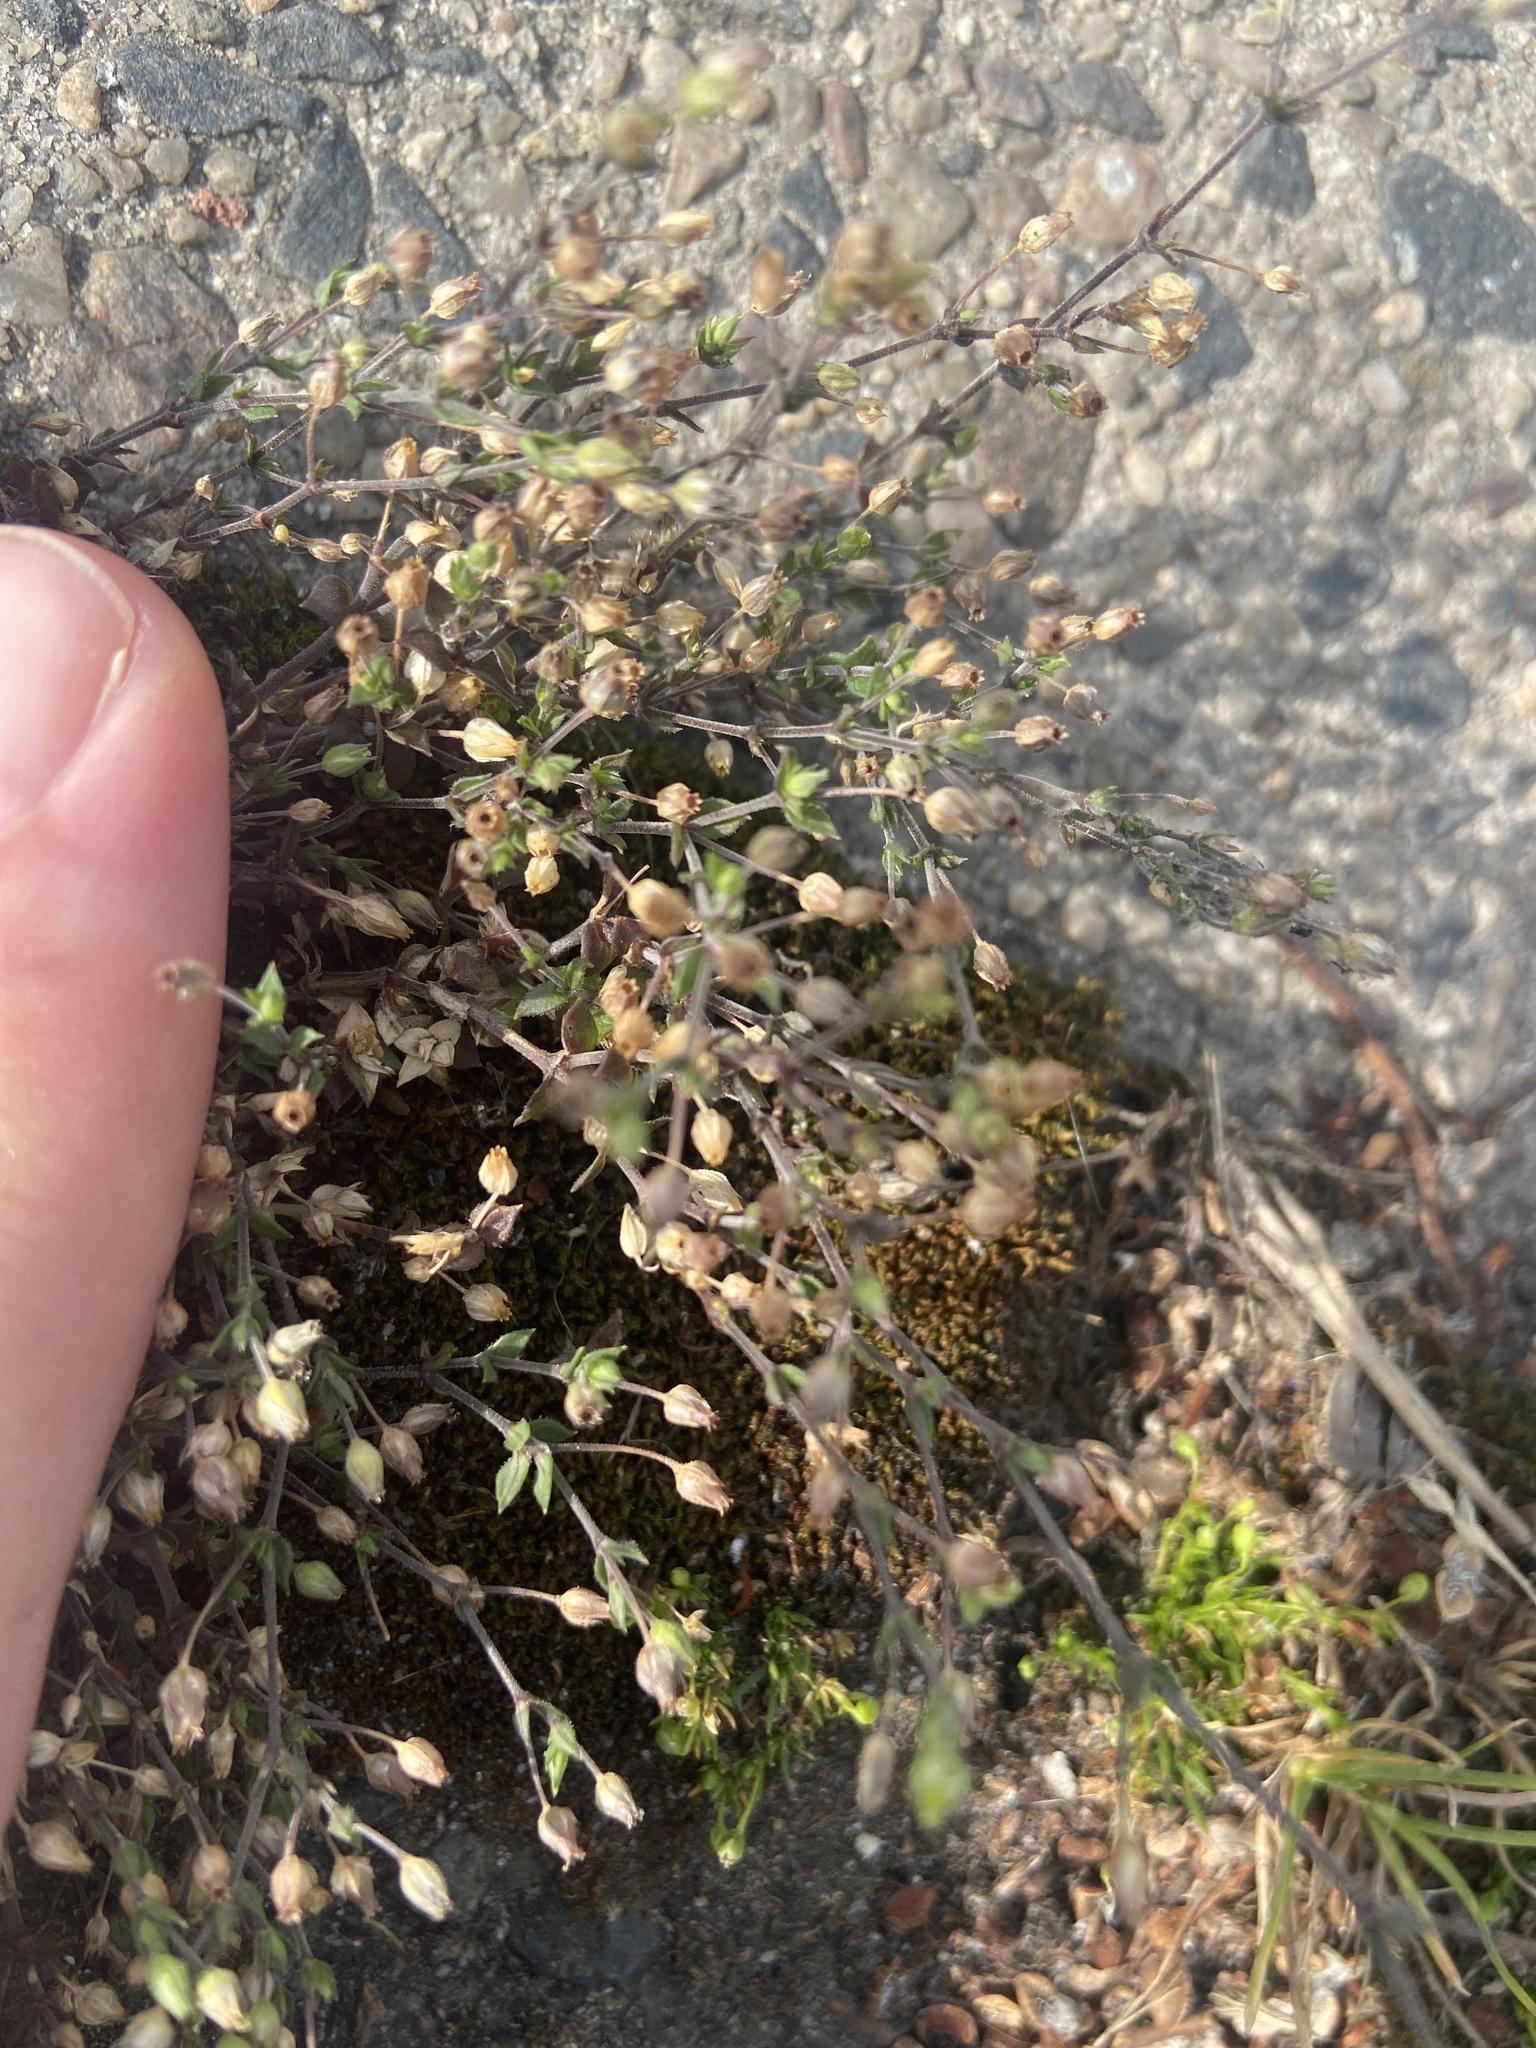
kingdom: Plantae
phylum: Tracheophyta
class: Magnoliopsida
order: Caryophyllales
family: Caryophyllaceae
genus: Arenaria
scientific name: Arenaria serpyllifolia
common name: Thyme-leaved sandwort
